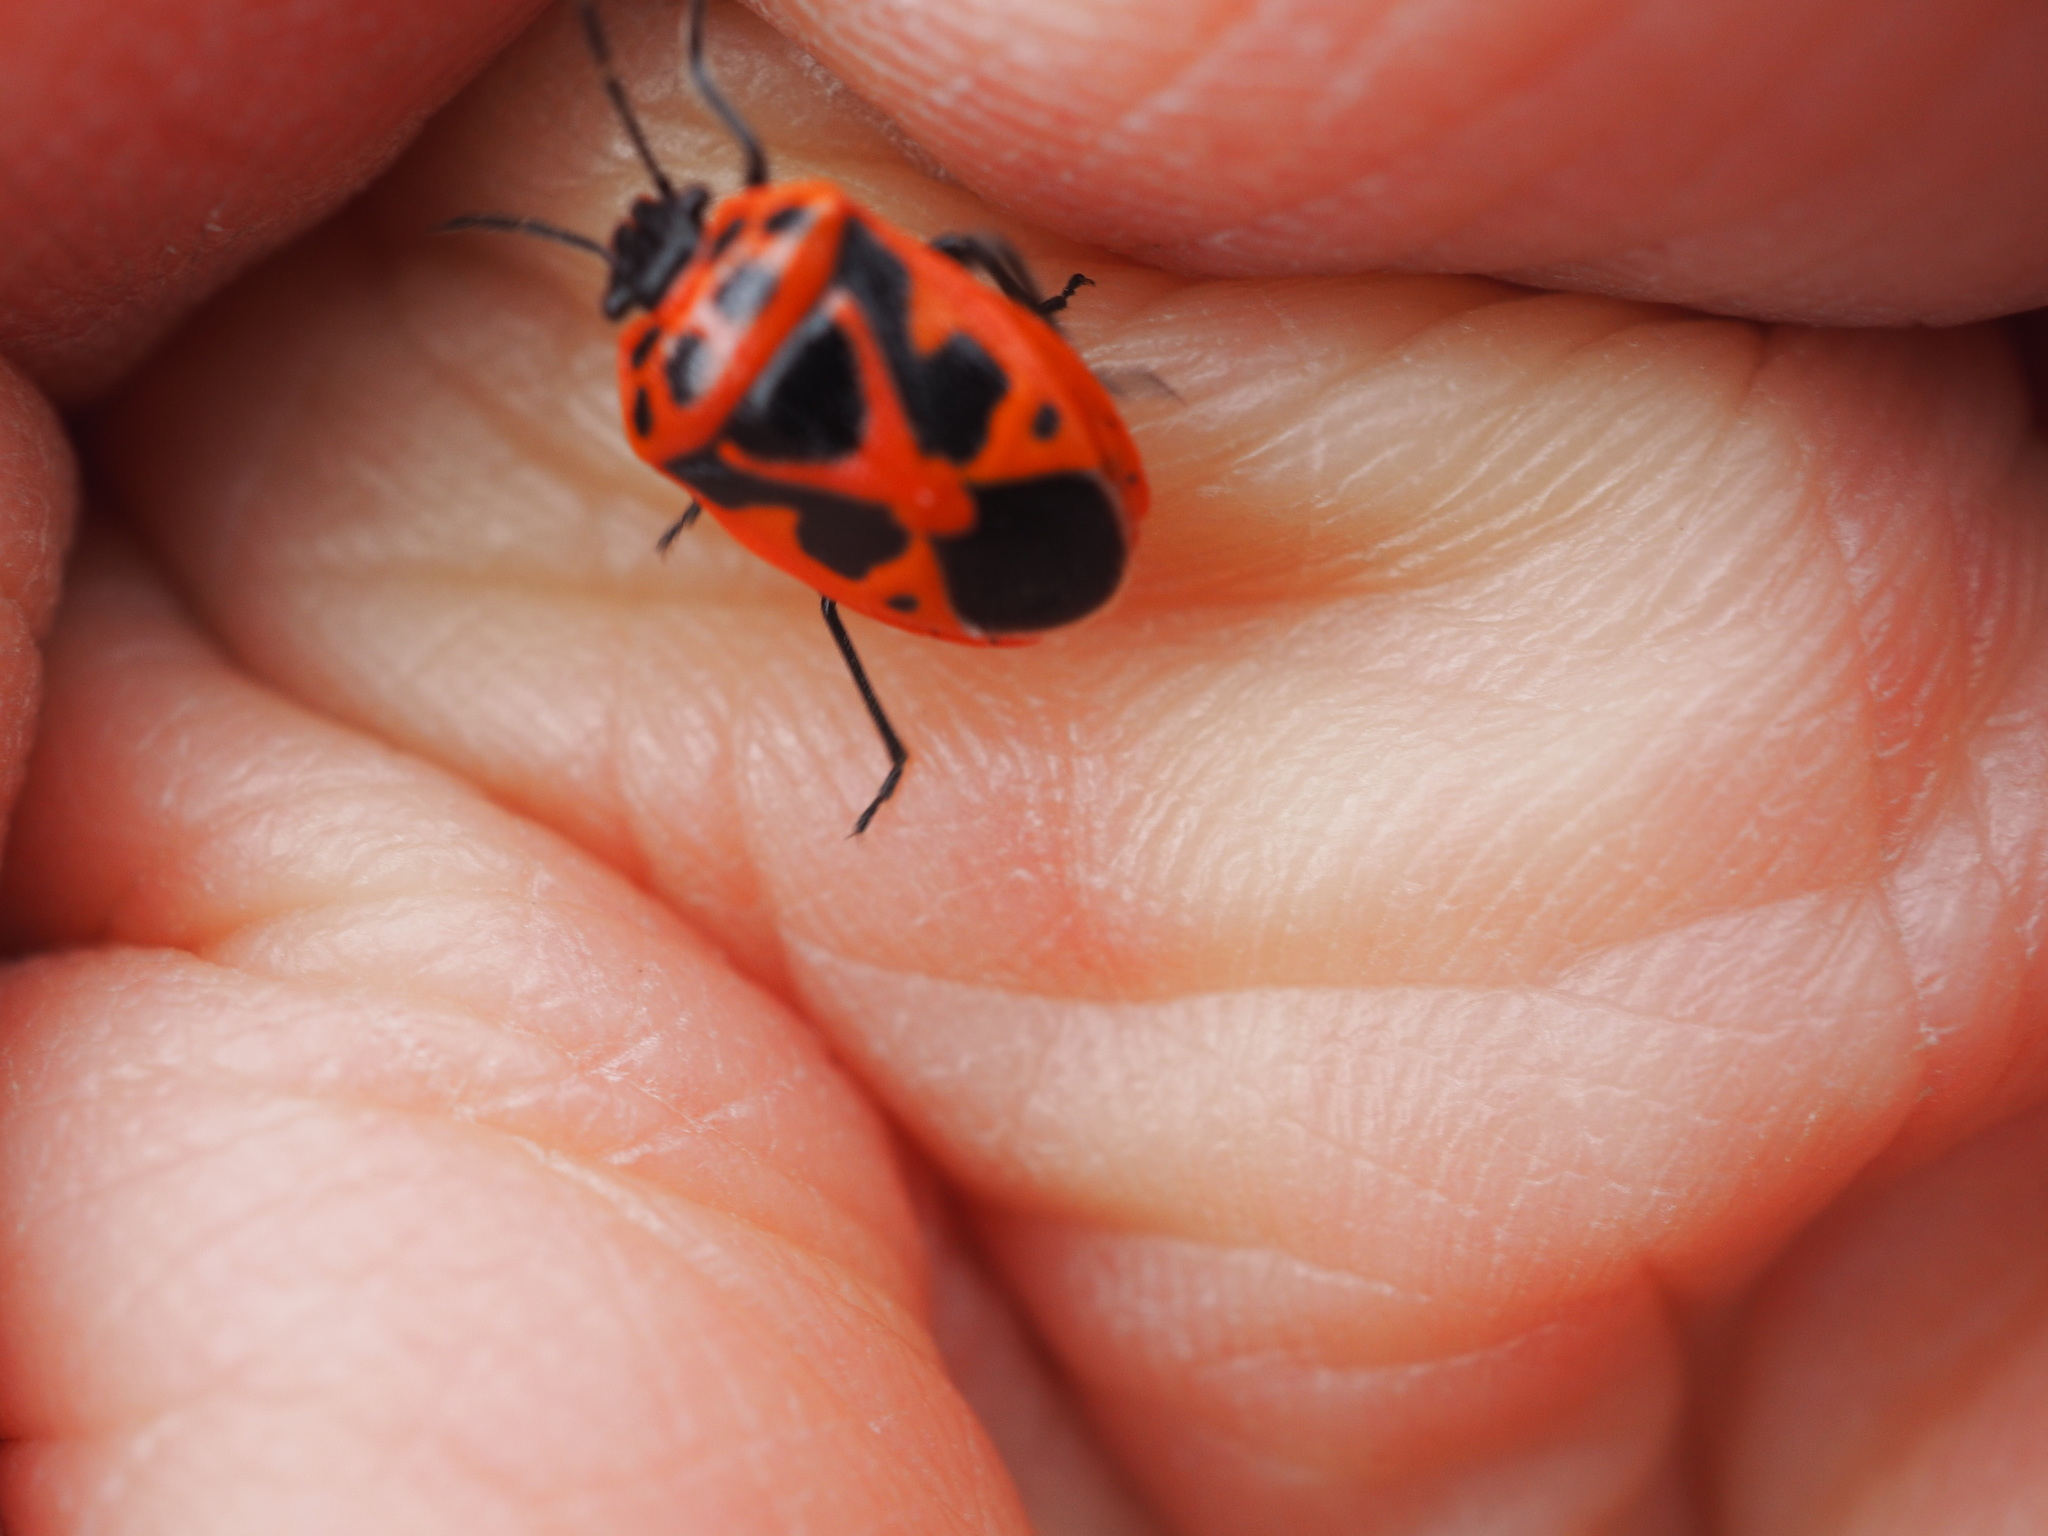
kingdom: Animalia
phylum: Arthropoda
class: Insecta
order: Hemiptera
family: Pentatomidae
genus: Eurydema
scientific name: Eurydema dominulus
